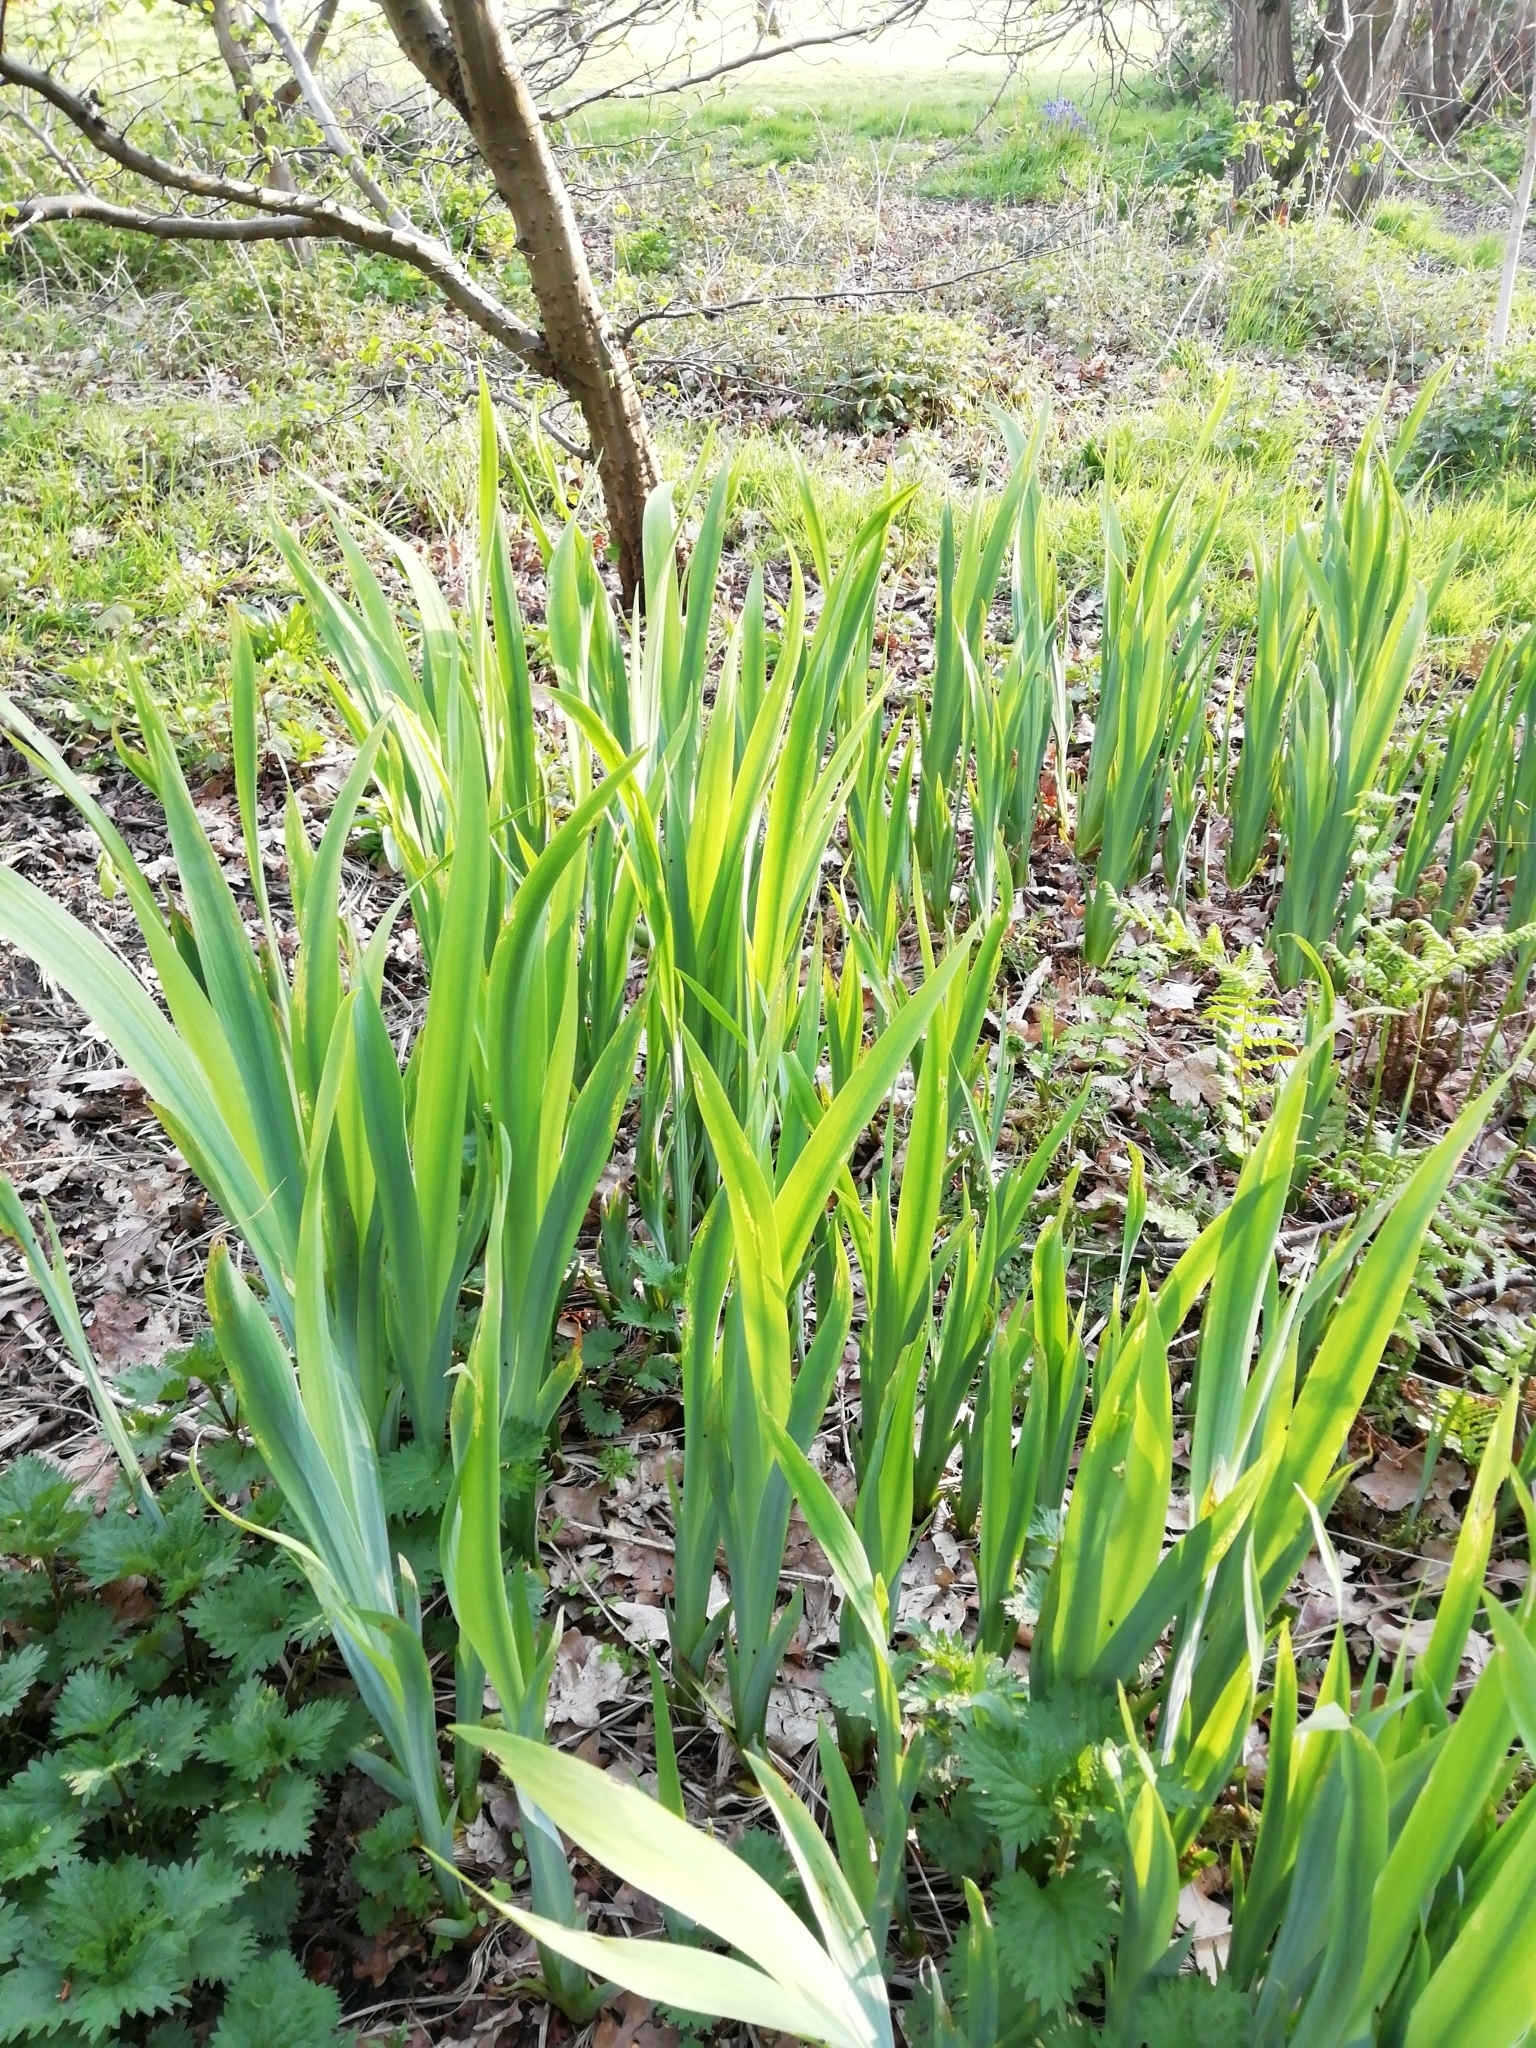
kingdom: Plantae
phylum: Tracheophyta
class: Liliopsida
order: Asparagales
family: Iridaceae
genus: Iris
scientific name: Iris pseudacorus
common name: Yellow flag
